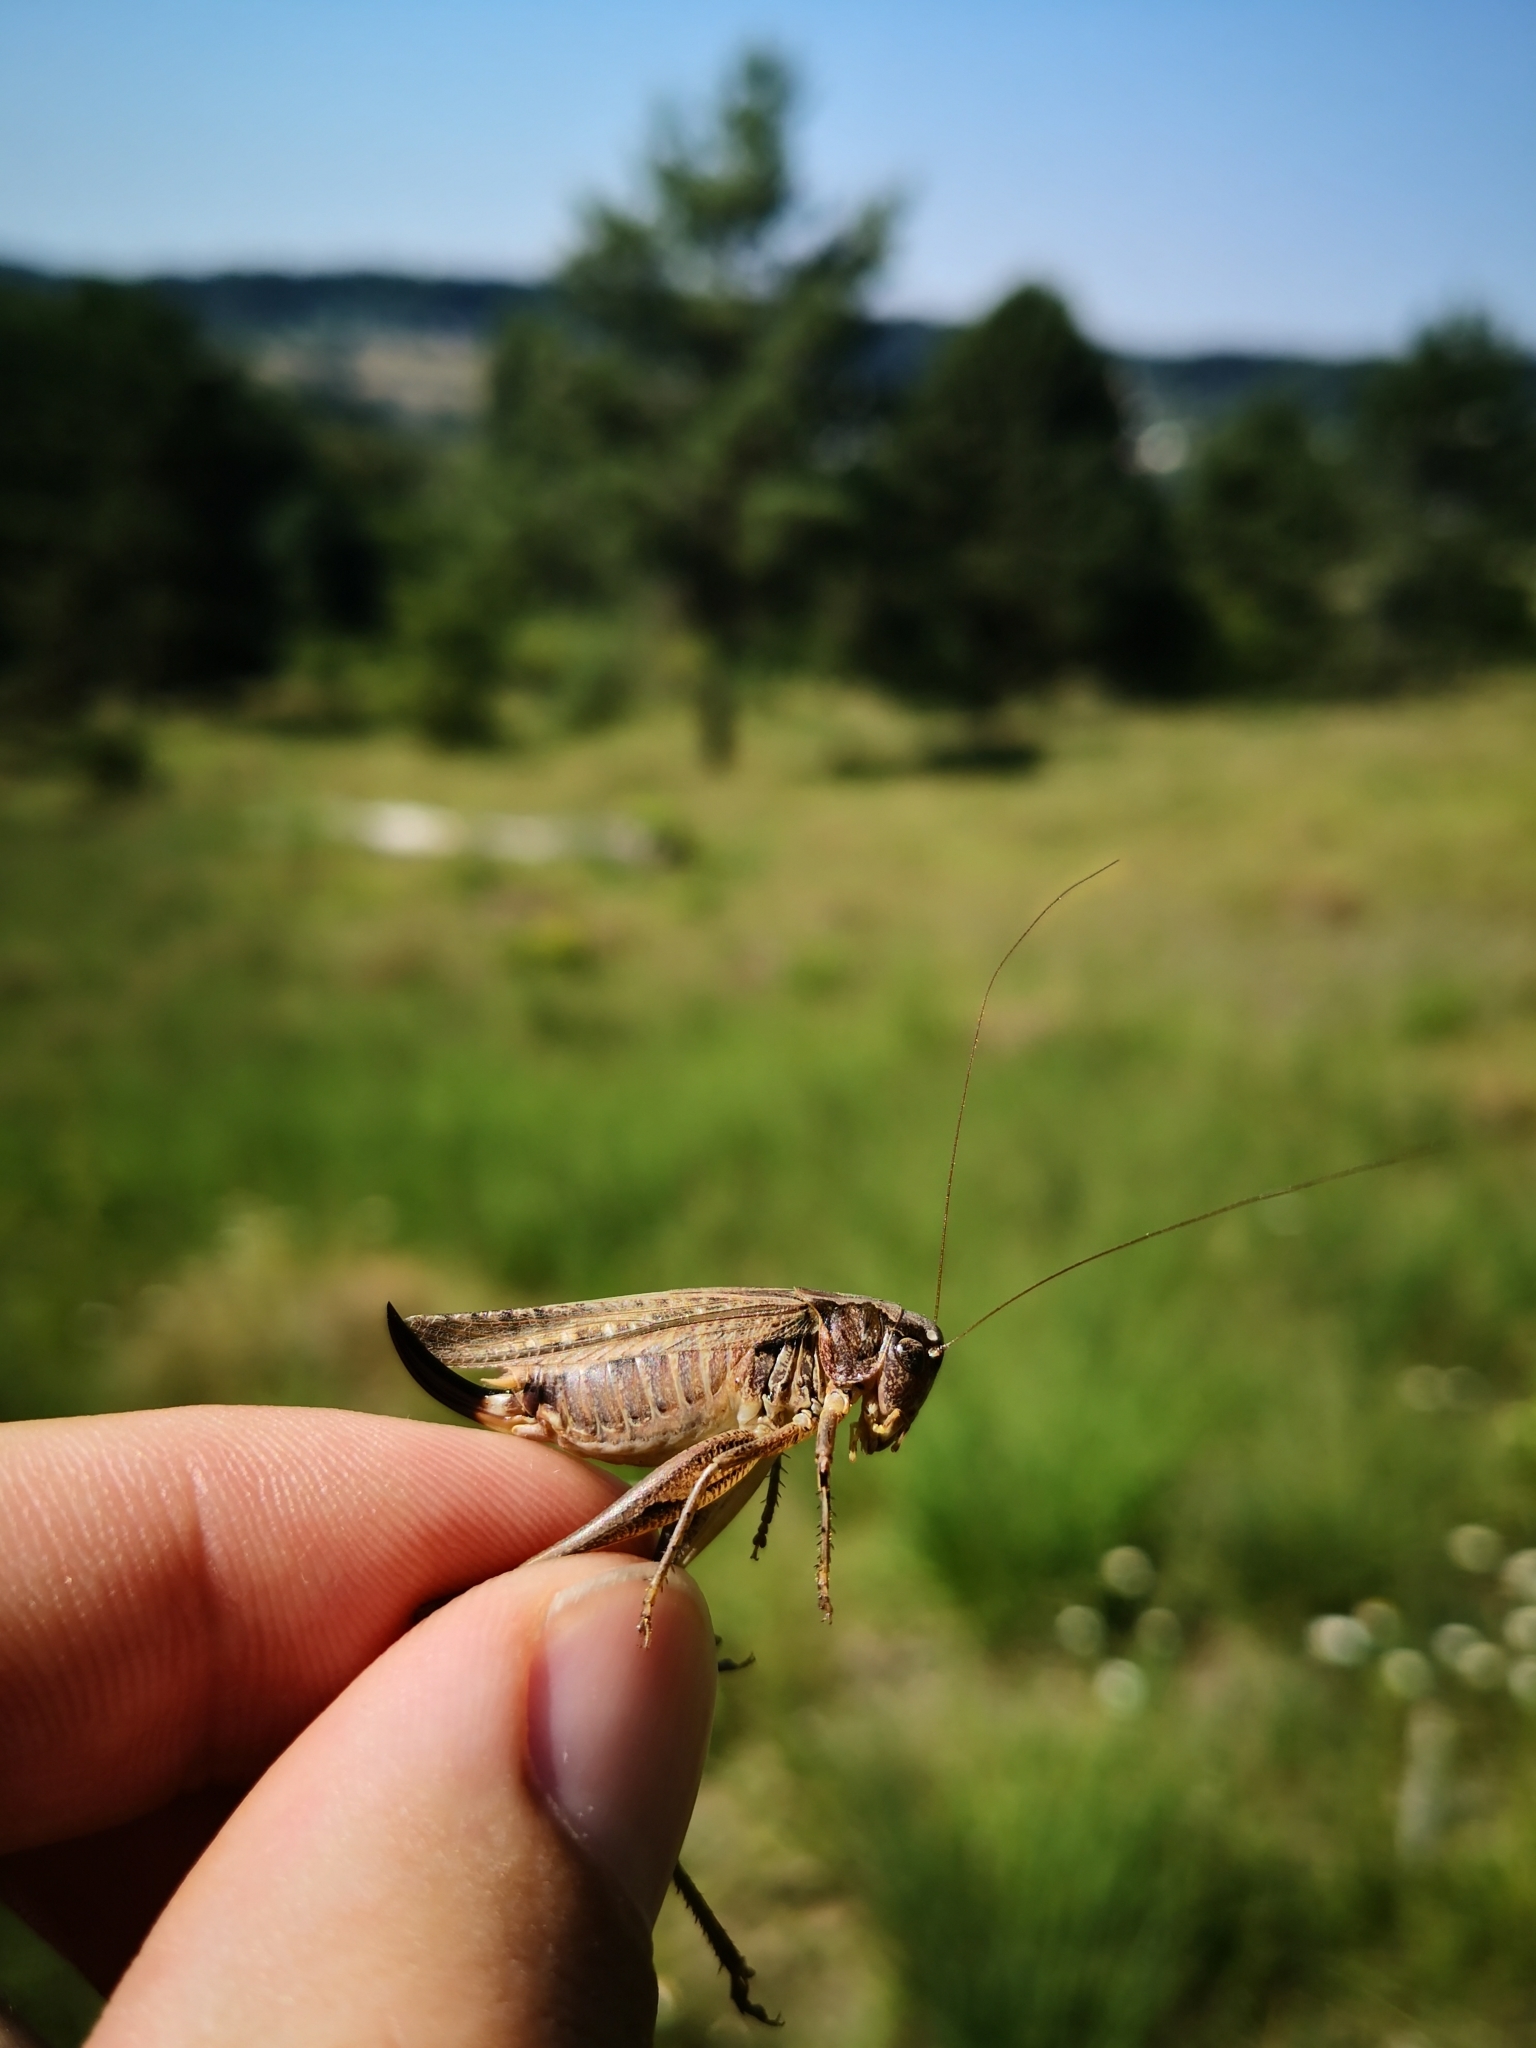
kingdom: Animalia
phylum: Arthropoda
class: Insecta
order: Orthoptera
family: Tettigoniidae
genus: Platycleis
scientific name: Platycleis albopunctata
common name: Grey bush-cricket
